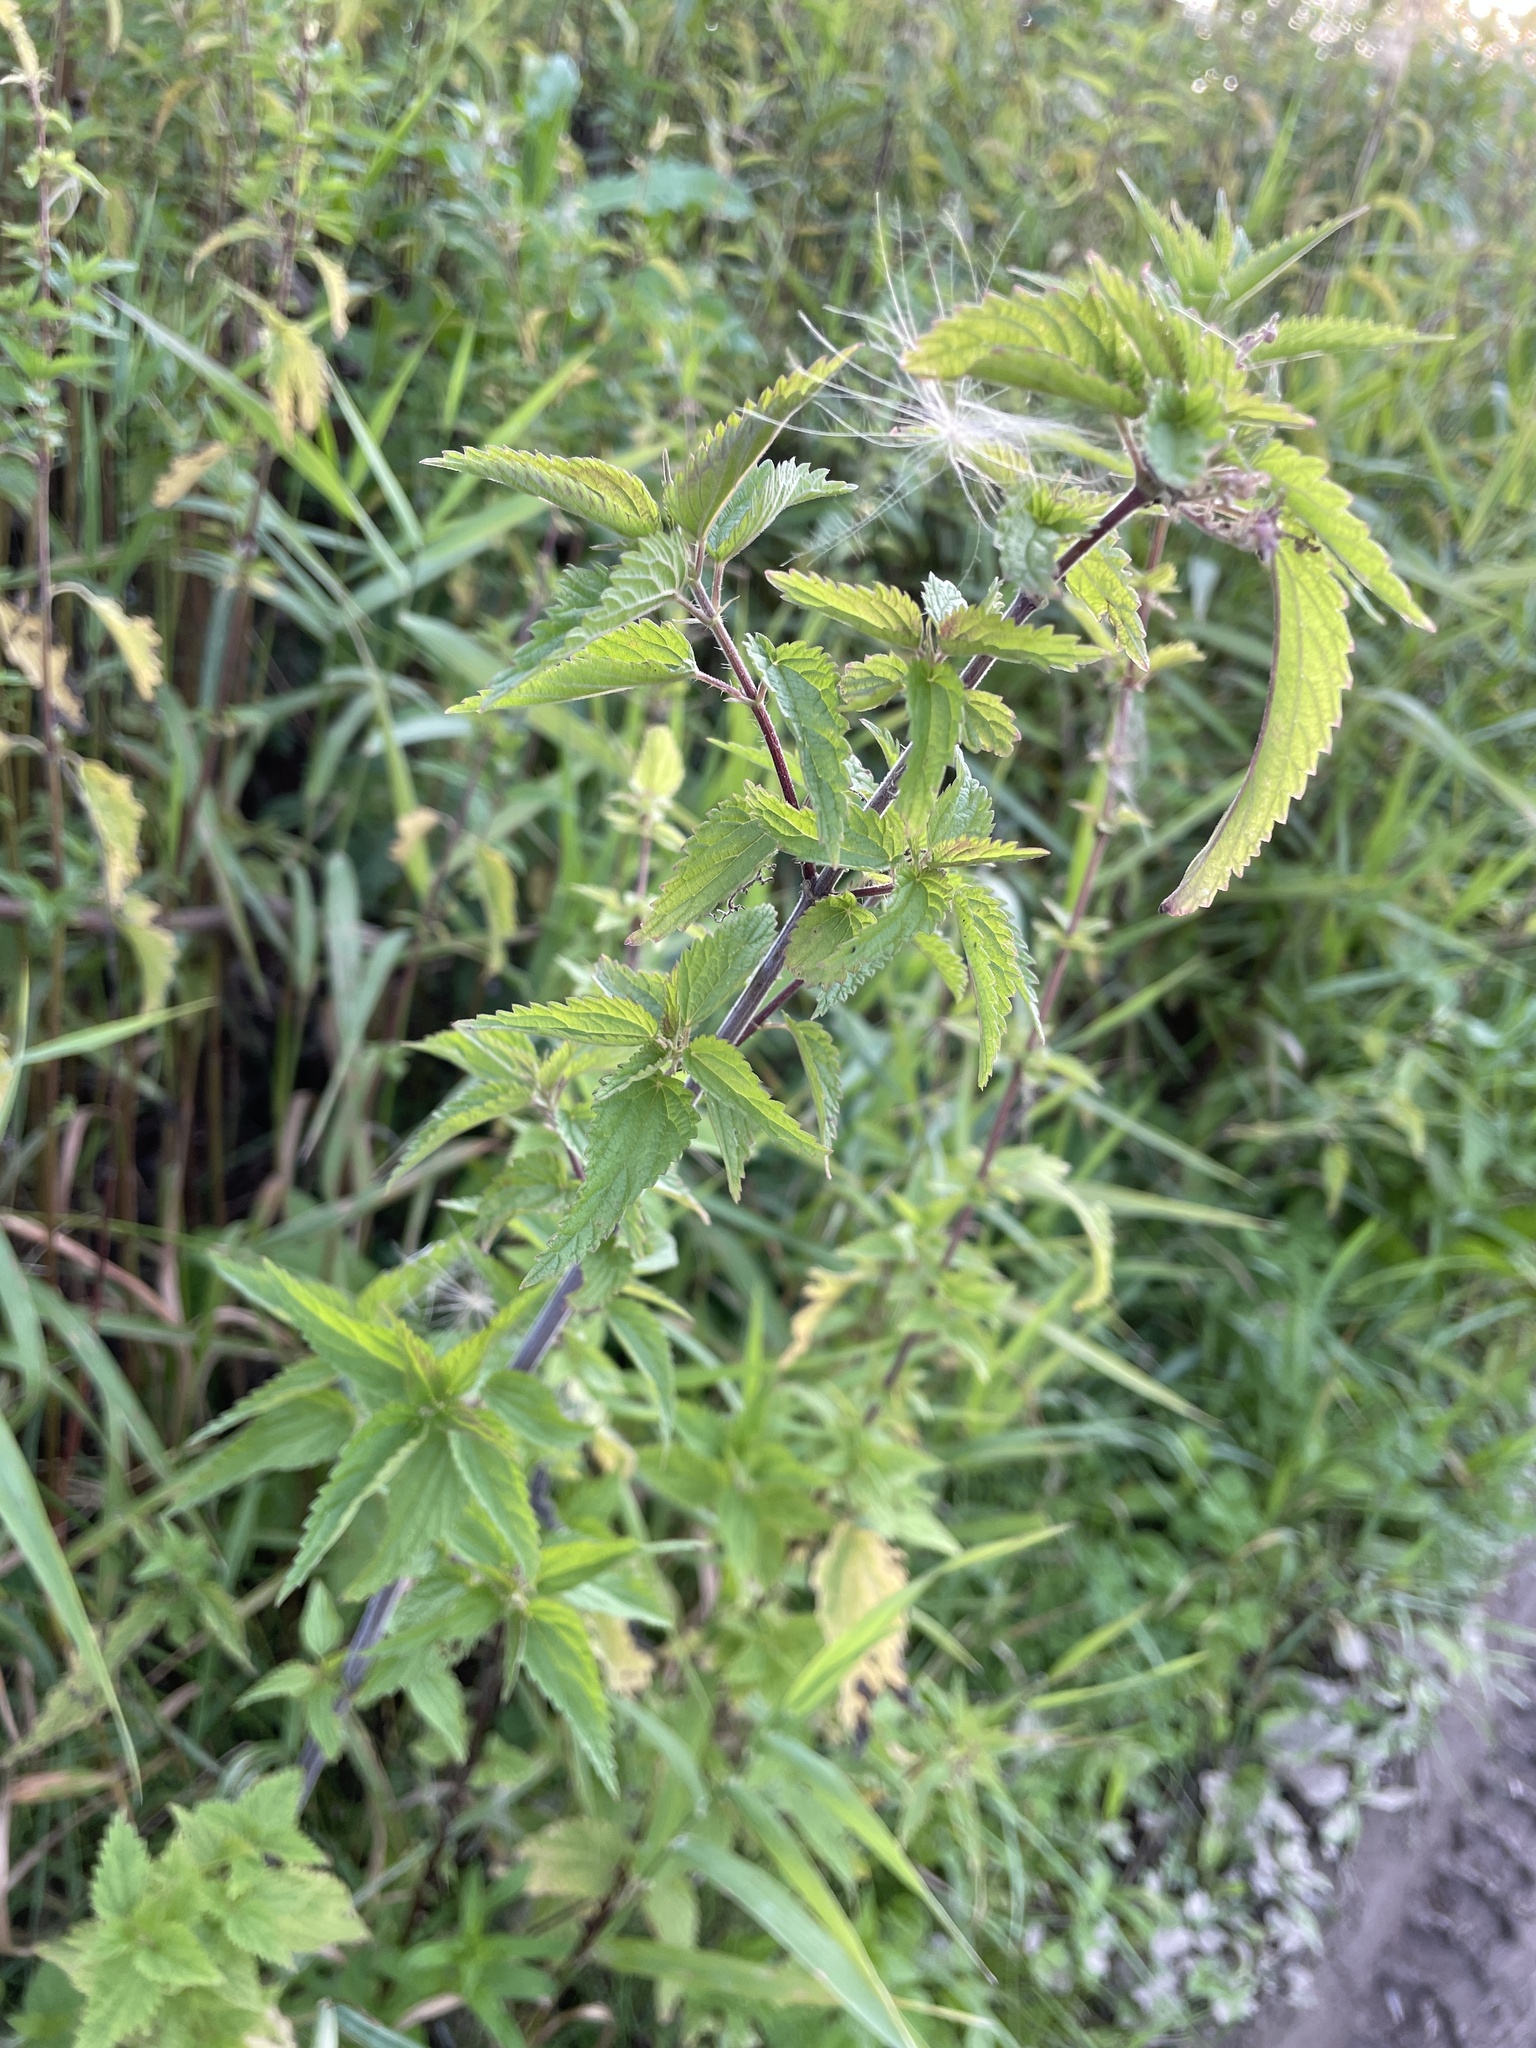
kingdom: Plantae
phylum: Tracheophyta
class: Magnoliopsida
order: Rosales
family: Urticaceae
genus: Urtica
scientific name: Urtica dioica
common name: Common nettle
